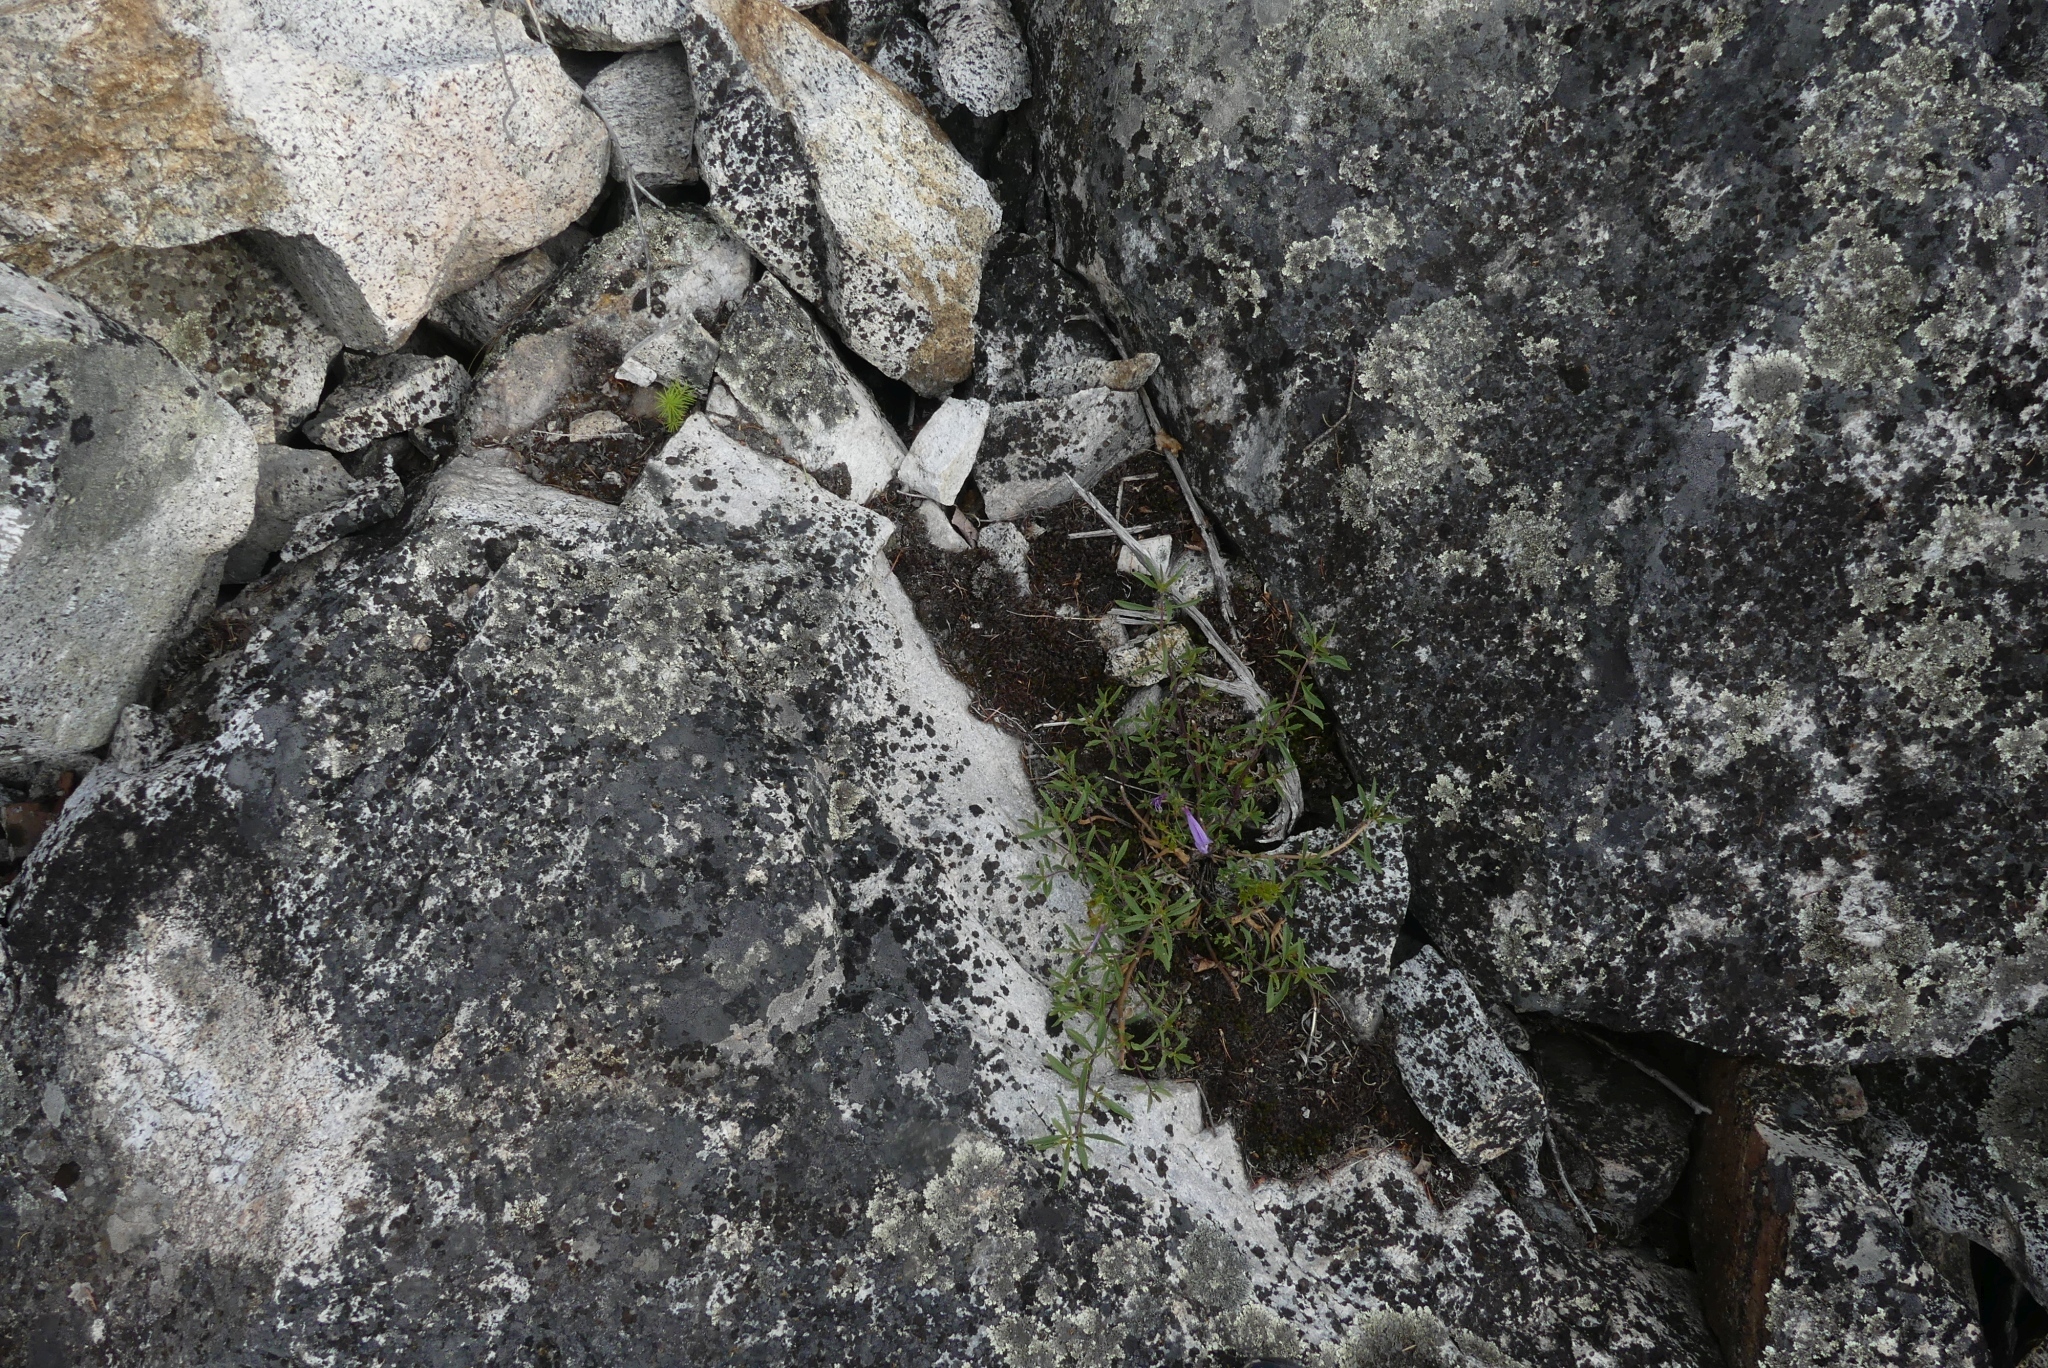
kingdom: Plantae
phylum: Tracheophyta
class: Magnoliopsida
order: Lamiales
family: Plantaginaceae
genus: Penstemon
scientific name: Penstemon fruticosus
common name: Bush penstemon
